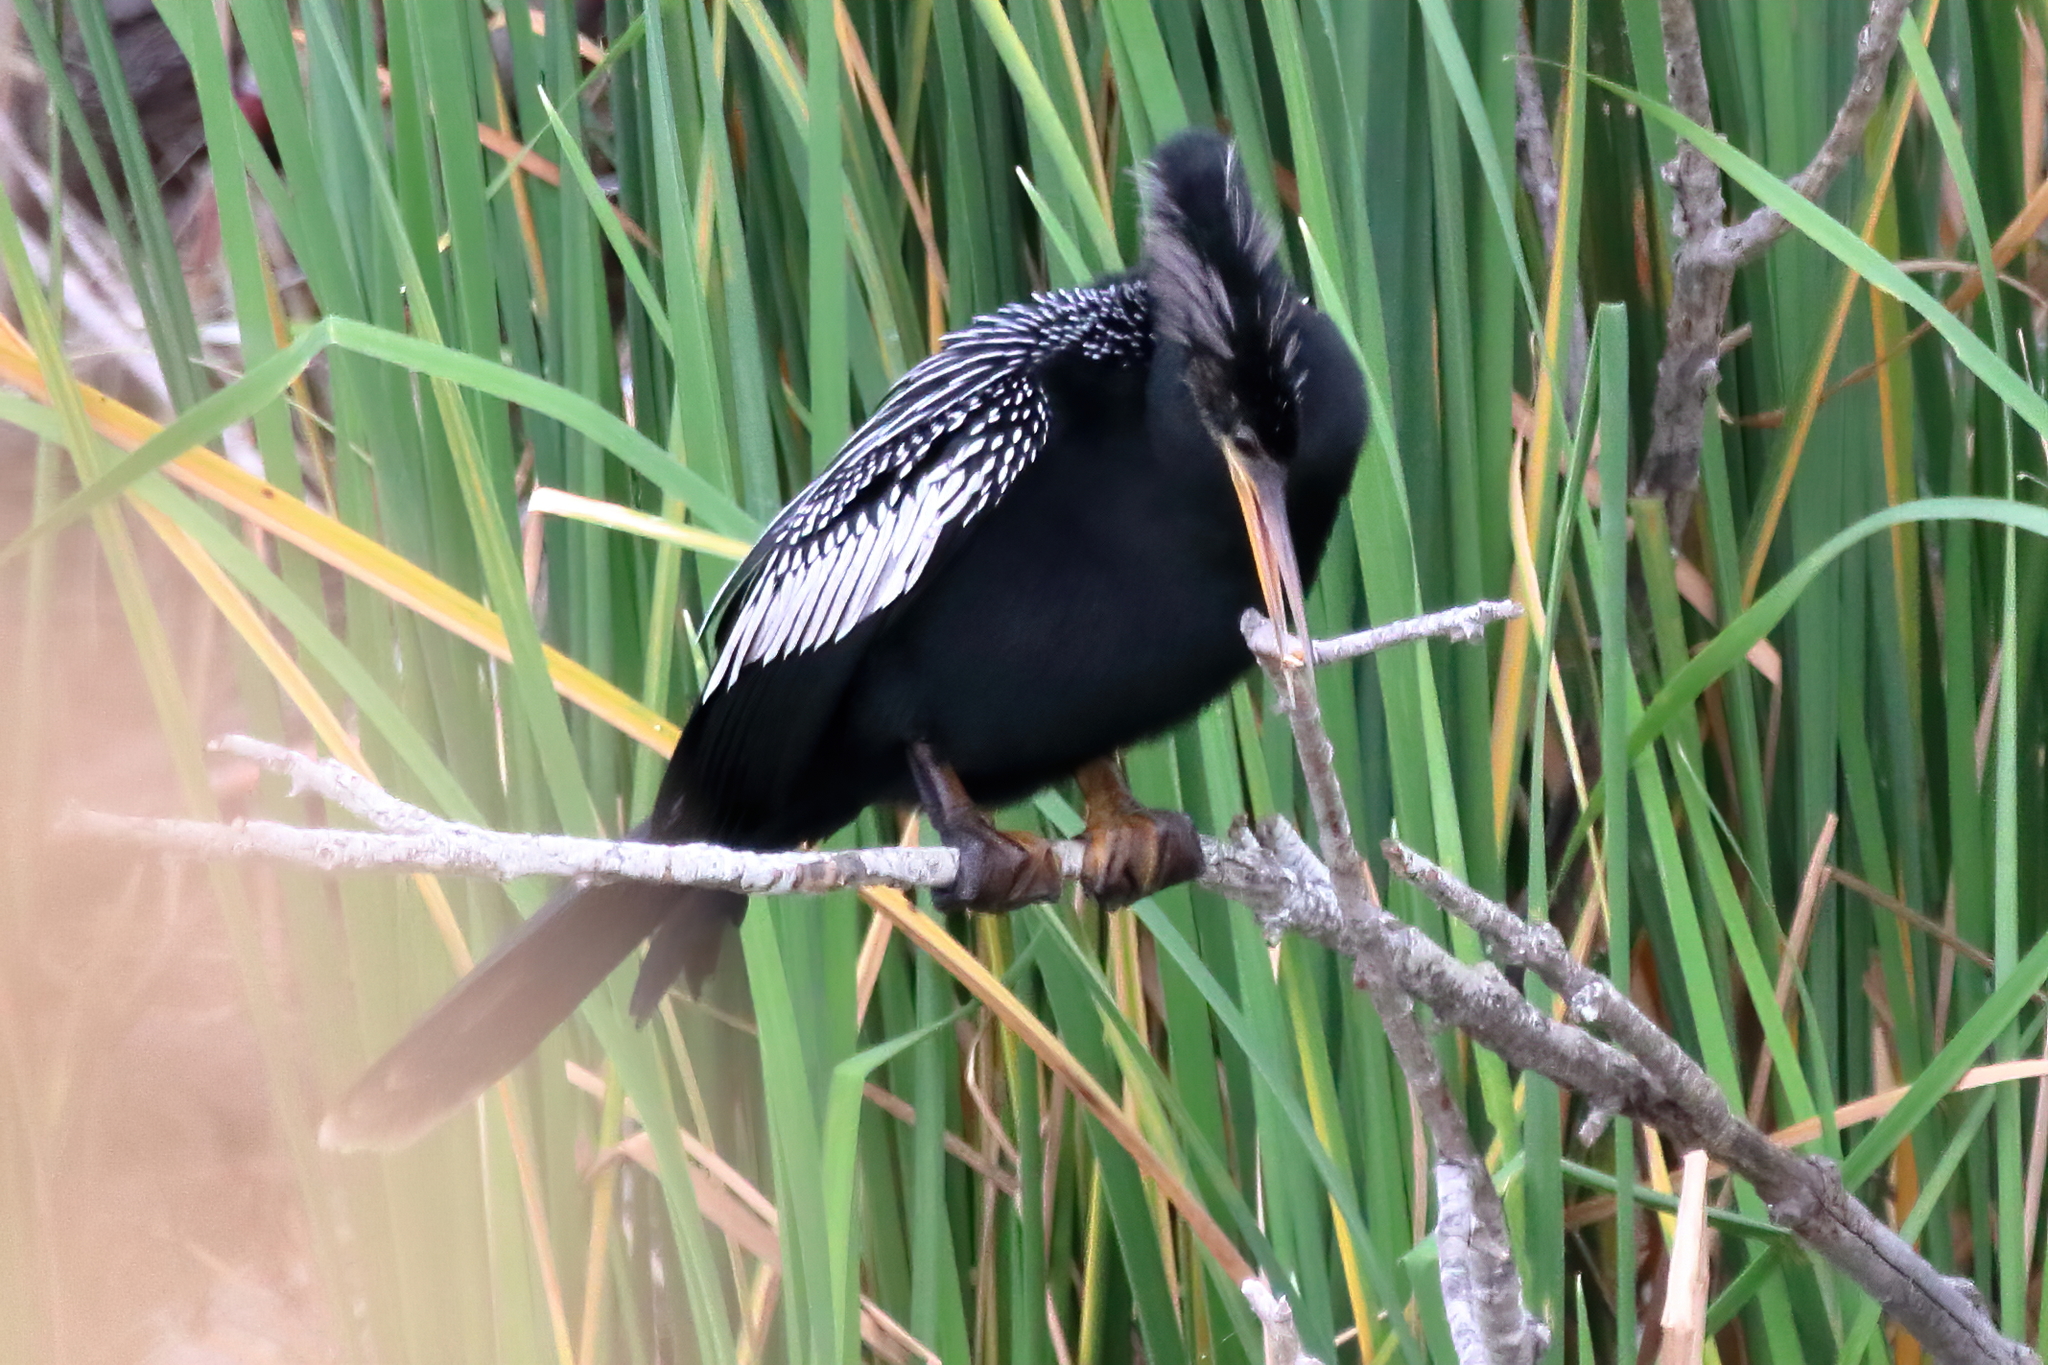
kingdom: Animalia
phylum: Chordata
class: Aves
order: Suliformes
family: Anhingidae
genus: Anhinga
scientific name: Anhinga anhinga
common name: Anhinga
